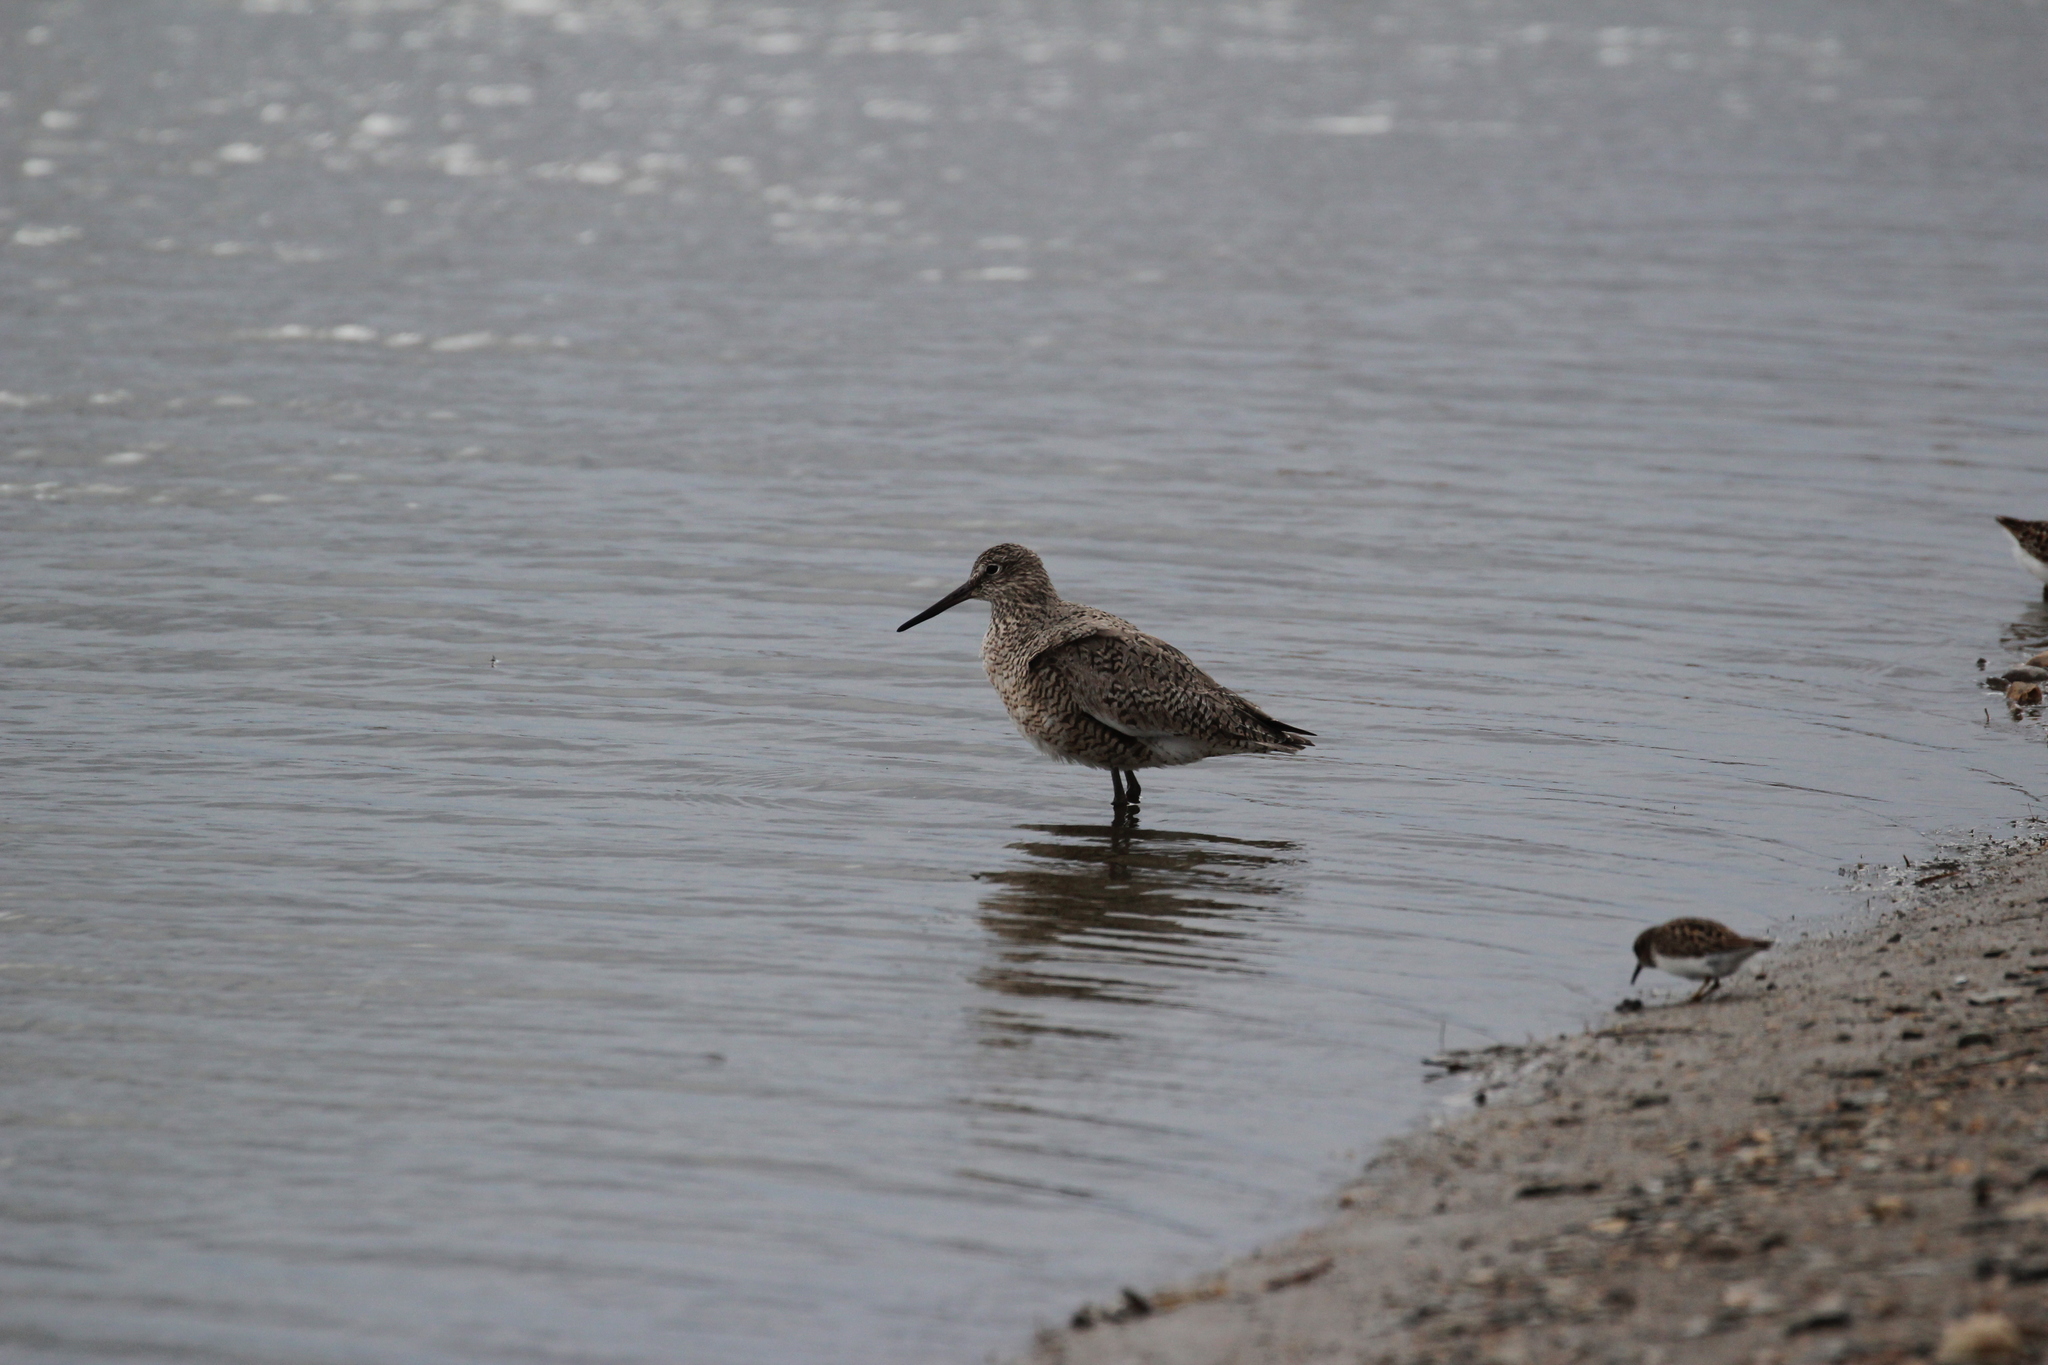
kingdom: Animalia
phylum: Chordata
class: Aves
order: Charadriiformes
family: Scolopacidae
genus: Tringa
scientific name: Tringa semipalmata
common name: Willet
